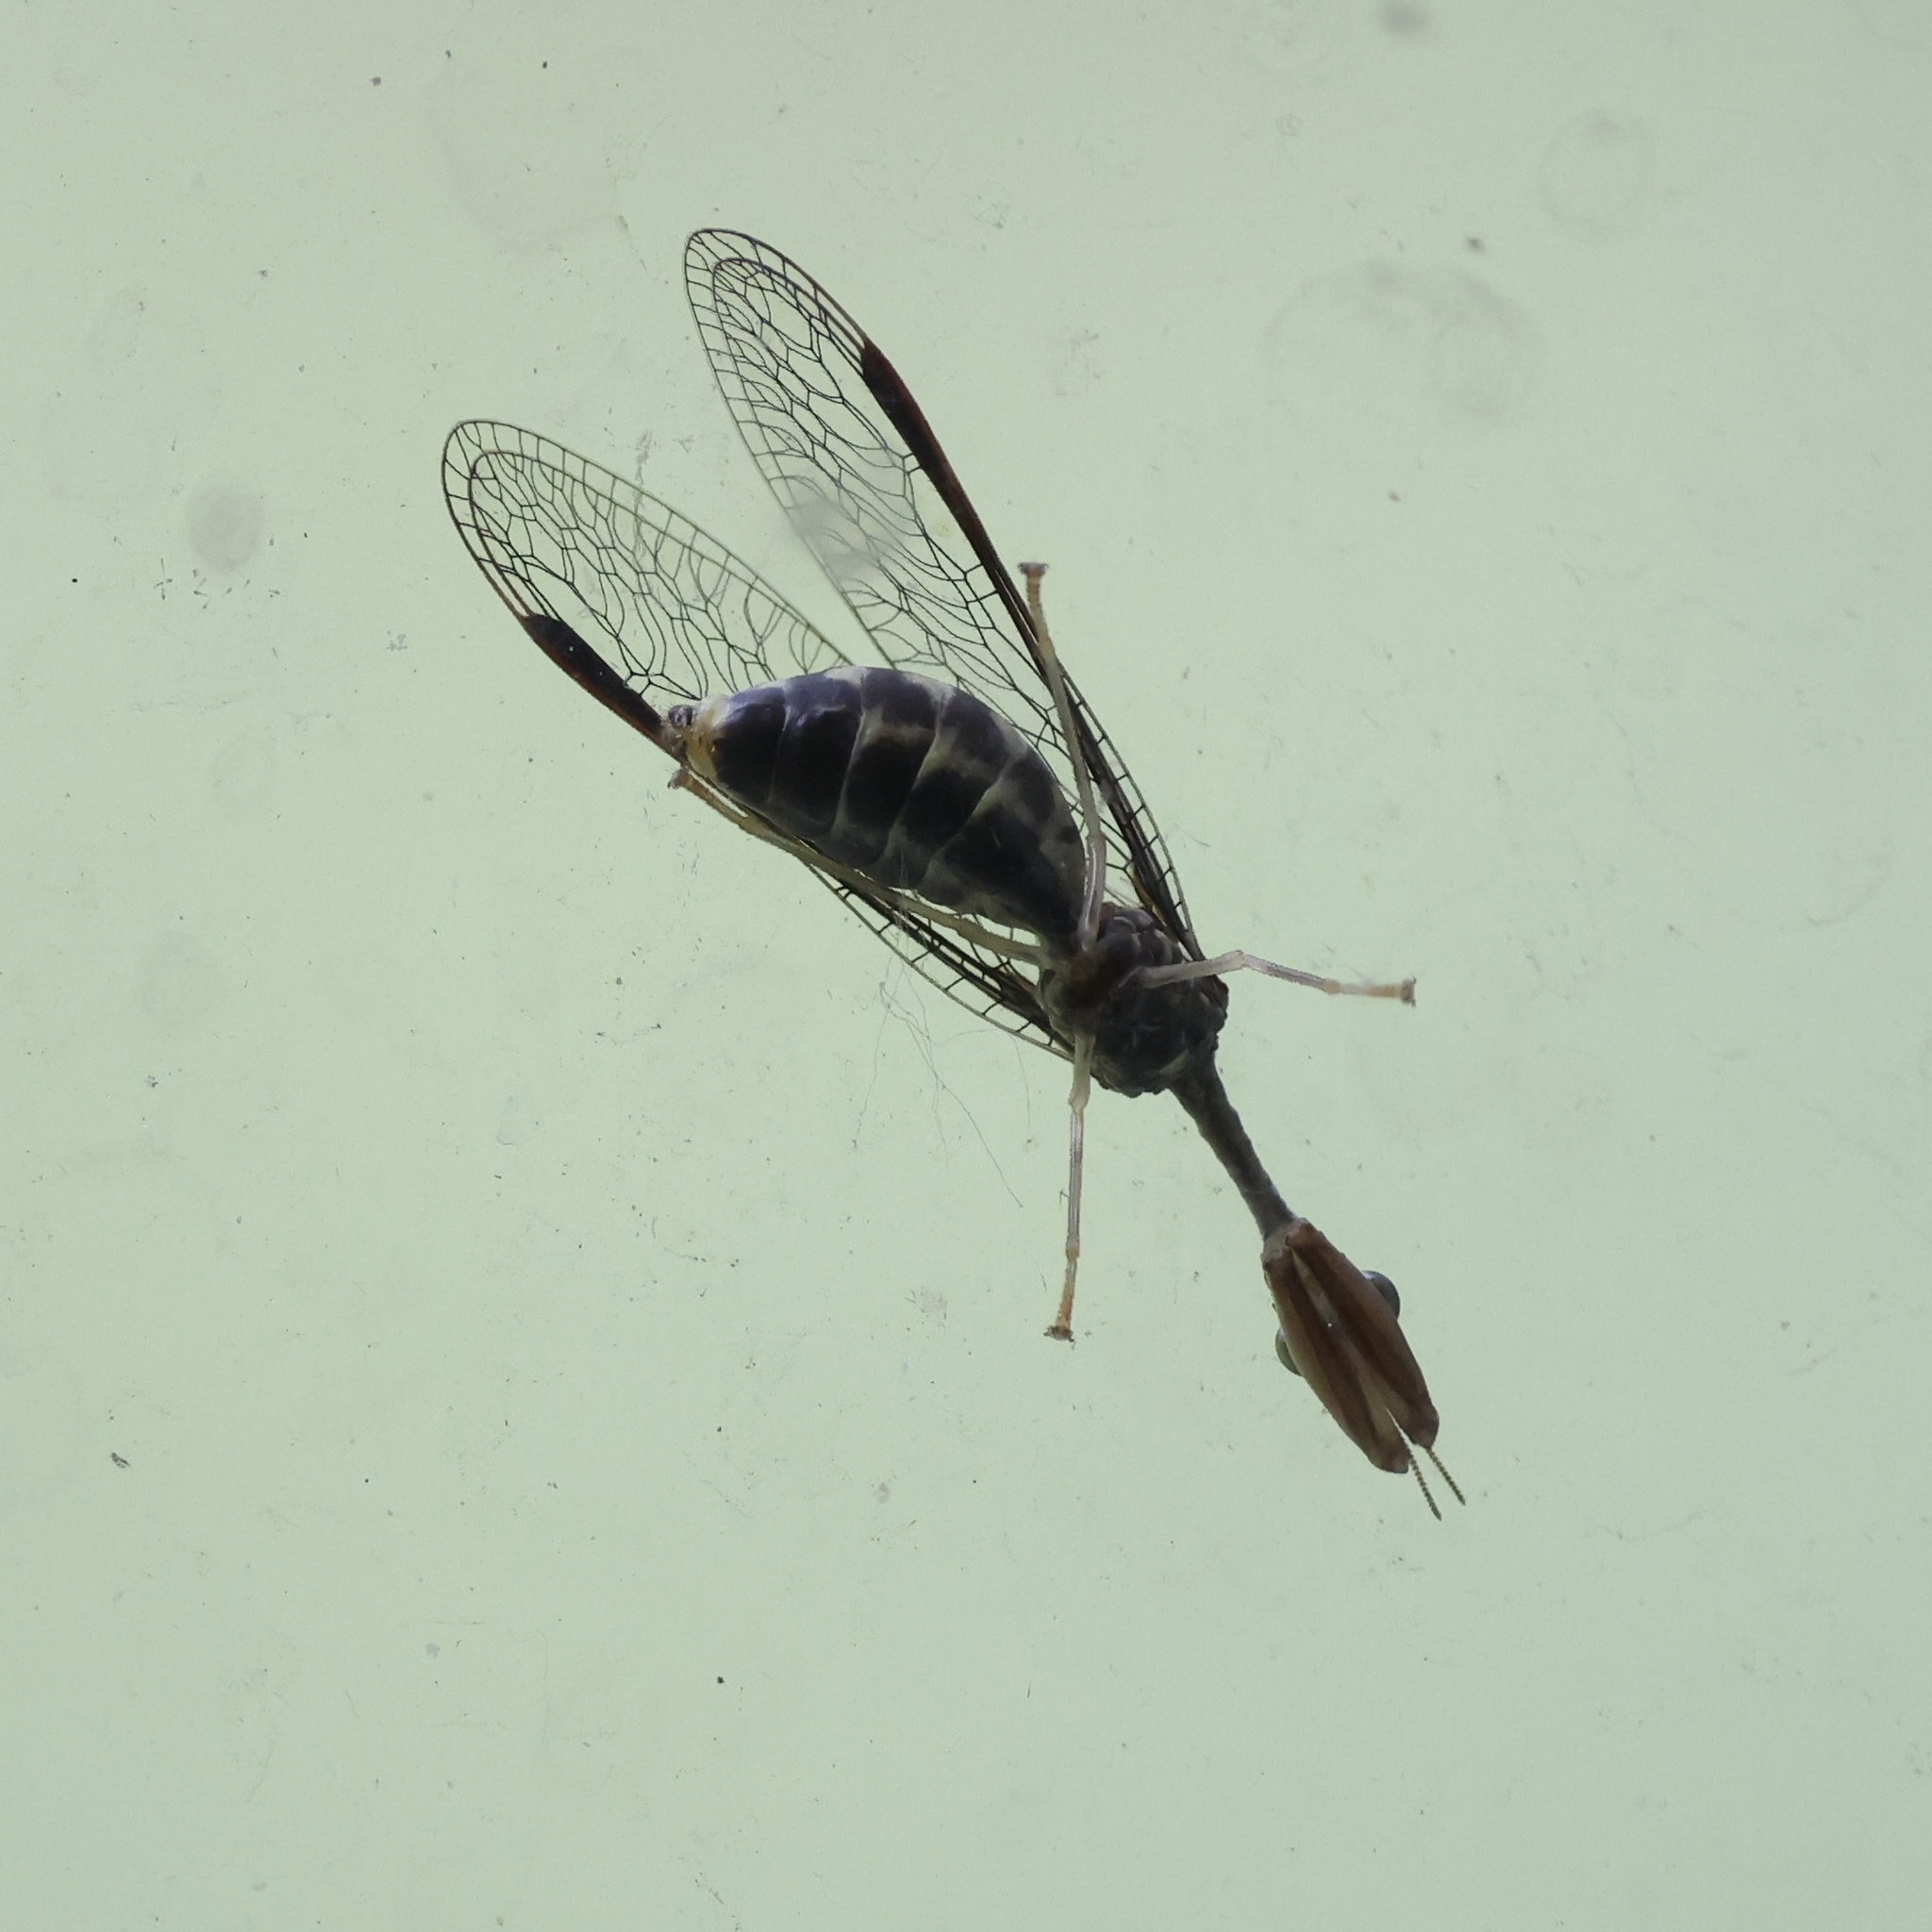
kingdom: Animalia
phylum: Arthropoda
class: Insecta
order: Neuroptera
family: Mantispidae
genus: Dicromantispa
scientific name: Dicromantispa sayi
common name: Say's mantidfly
